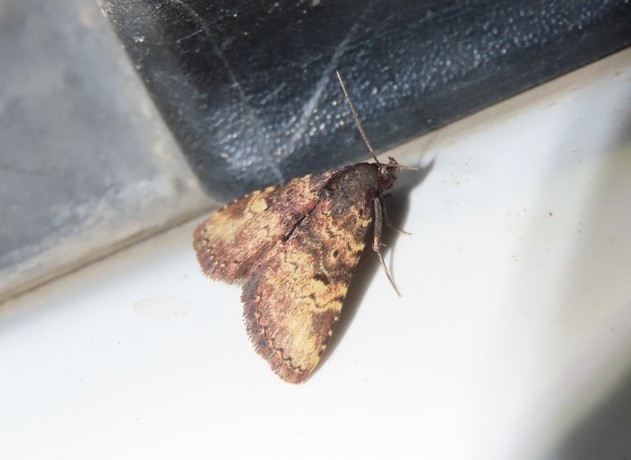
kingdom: Animalia
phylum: Arthropoda
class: Insecta
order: Lepidoptera
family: Erebidae
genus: Metalectra
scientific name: Metalectra edilis
